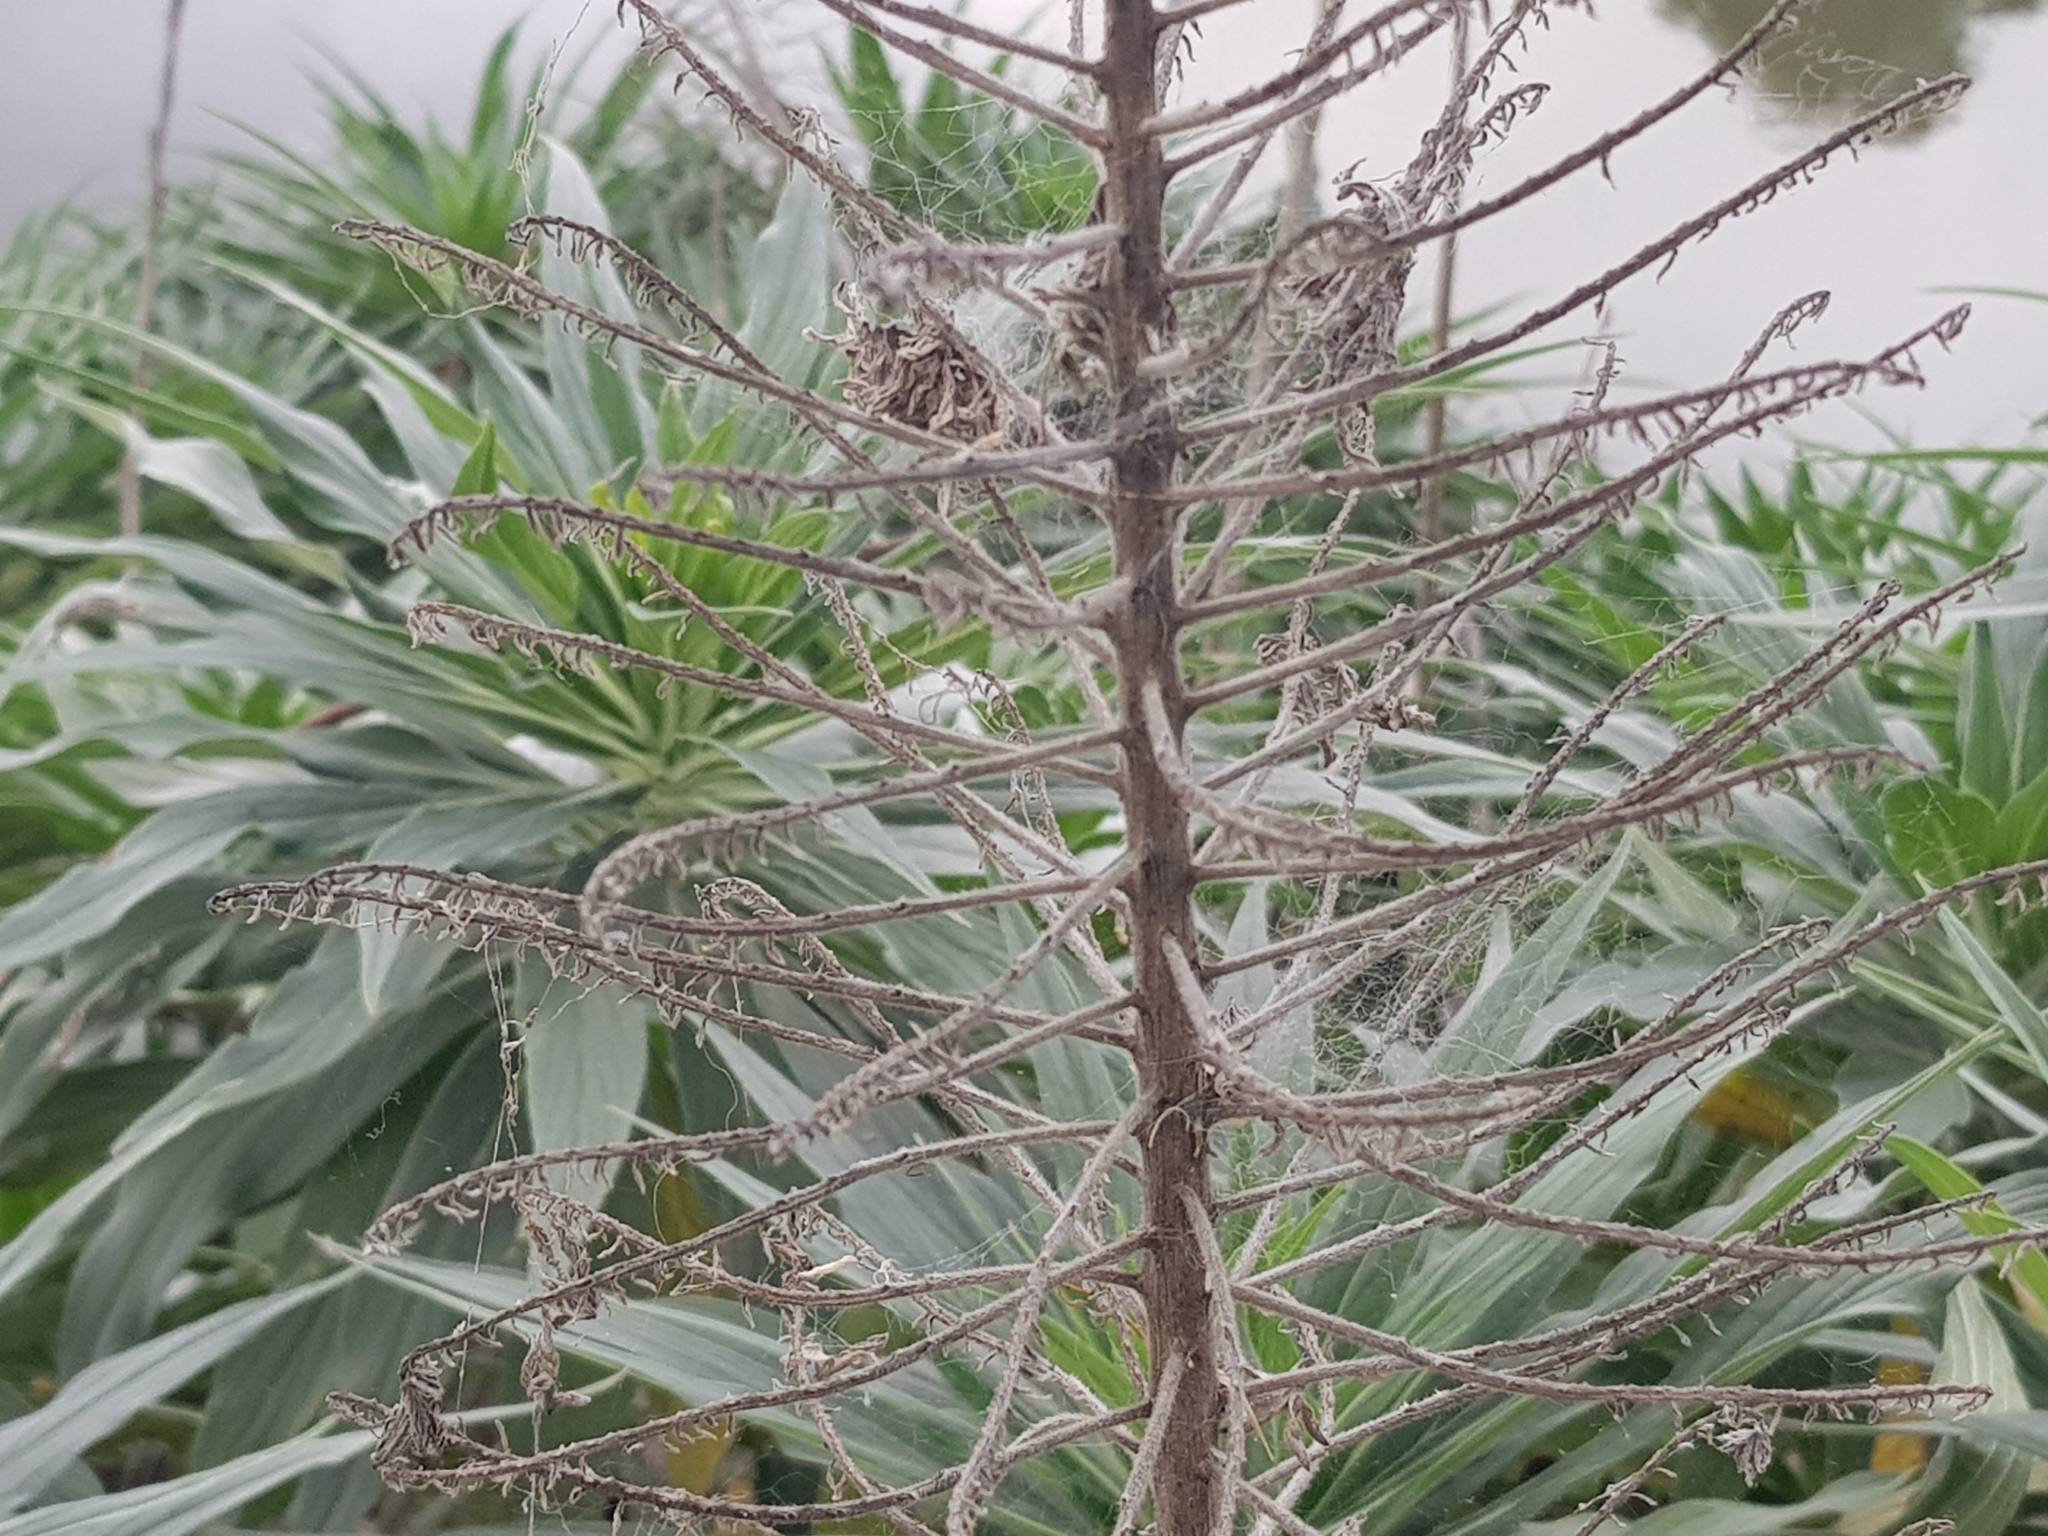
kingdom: Plantae
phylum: Tracheophyta
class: Magnoliopsida
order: Boraginales
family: Boraginaceae
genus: Echium
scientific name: Echium candicans
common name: Pride of madeira
